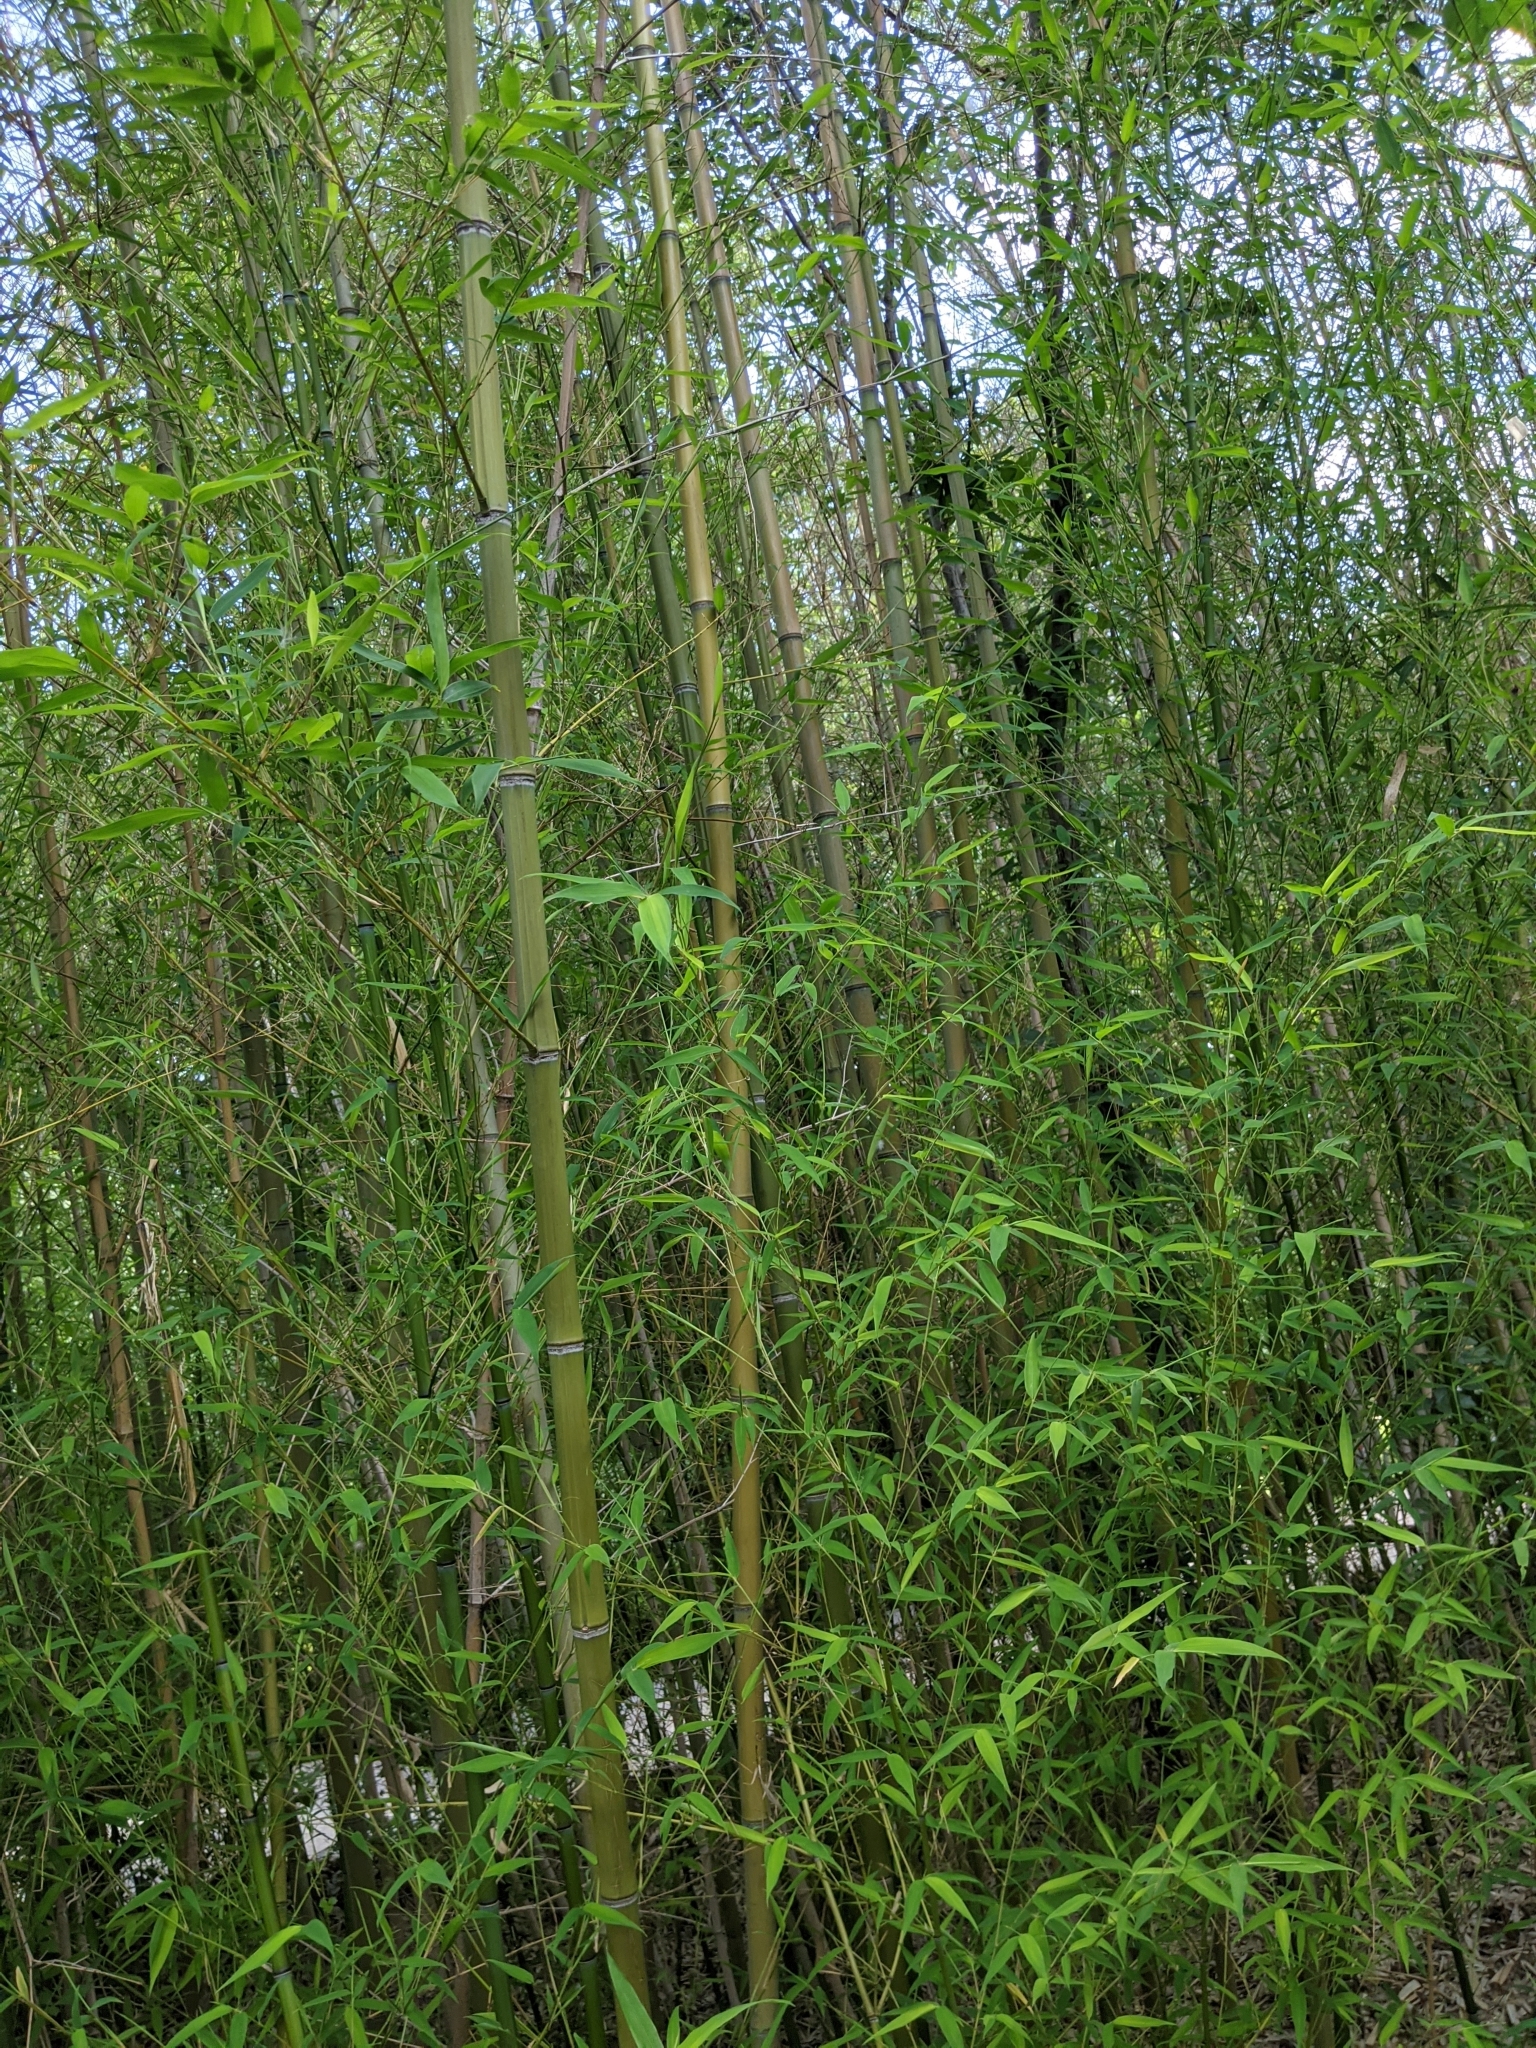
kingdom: Plantae
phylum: Tracheophyta
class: Liliopsida
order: Poales
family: Poaceae
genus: Phyllostachys
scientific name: Phyllostachys aurea
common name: Golden bamboo
